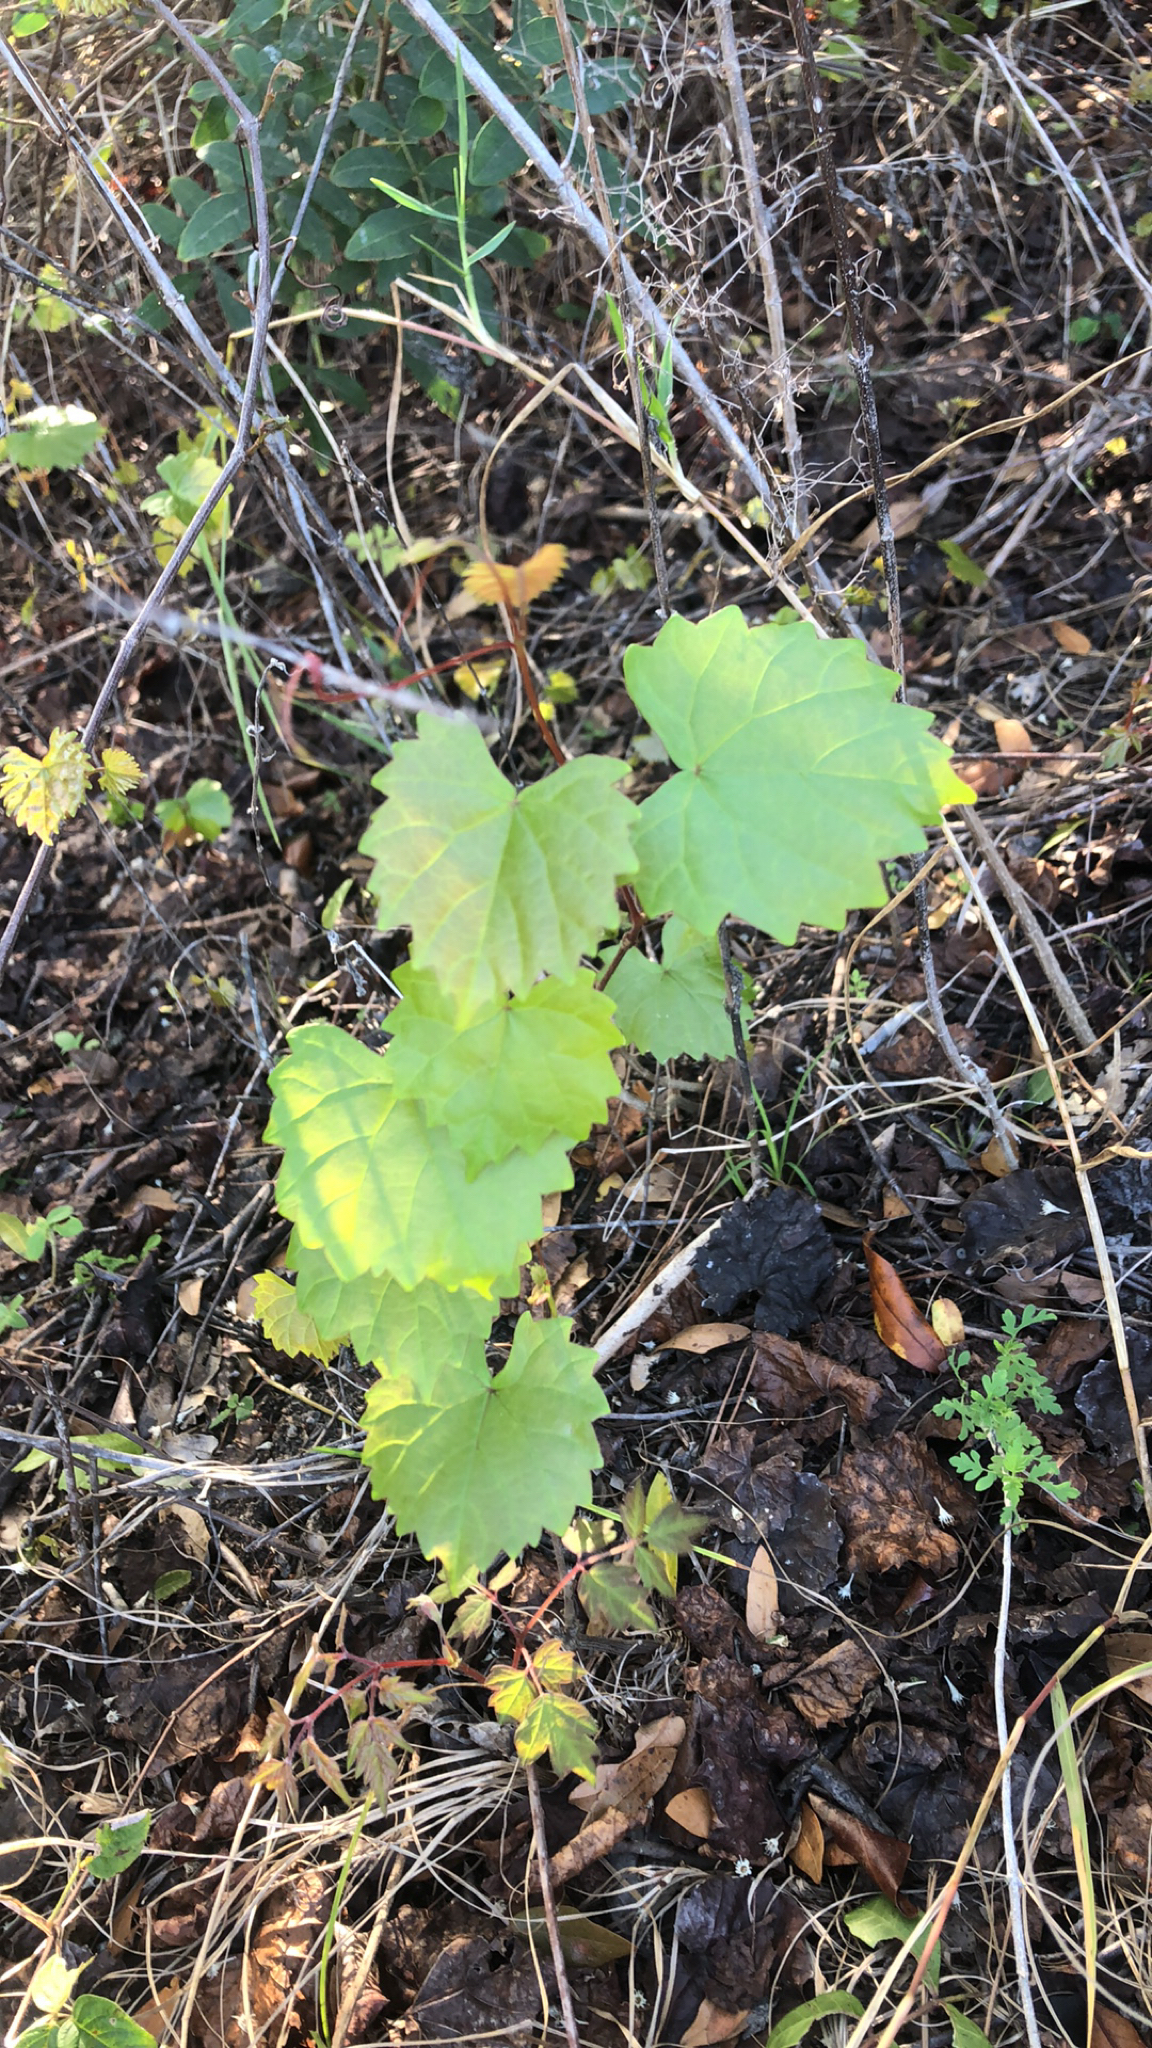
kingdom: Plantae
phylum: Tracheophyta
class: Magnoliopsida
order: Vitales
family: Vitaceae
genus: Vitis
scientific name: Vitis rotundifolia
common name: Muscadine grape
